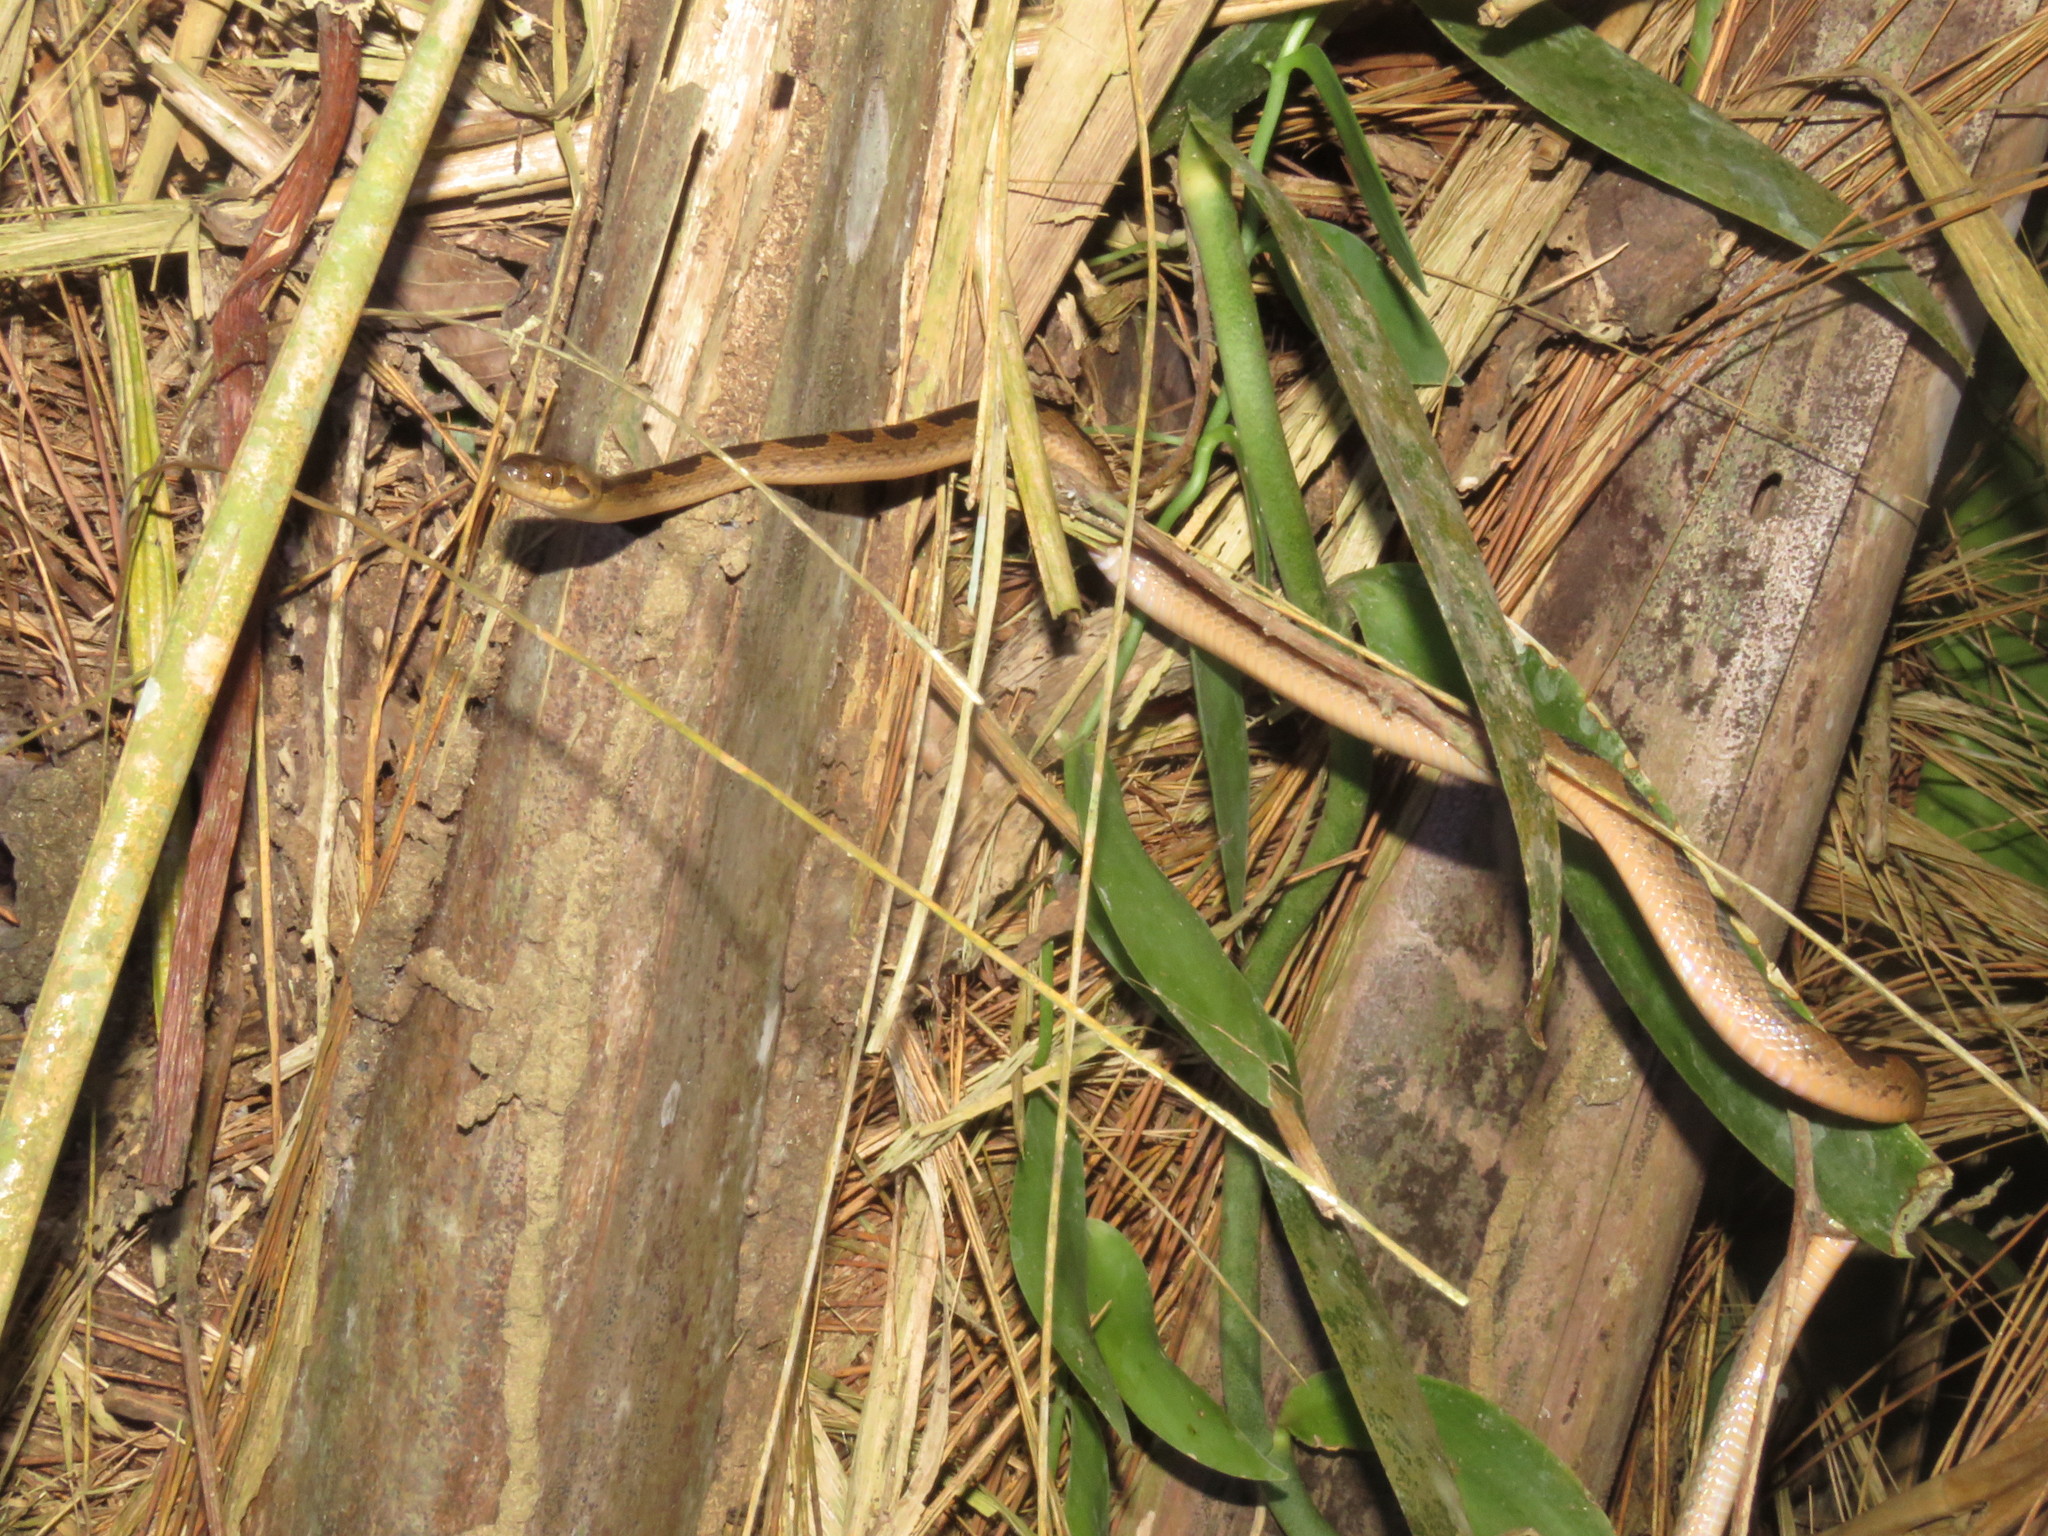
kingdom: Animalia
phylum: Chordata
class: Squamata
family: Colubridae
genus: Leptodeira
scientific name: Leptodeira annulata
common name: Banded cat-eyed snake
